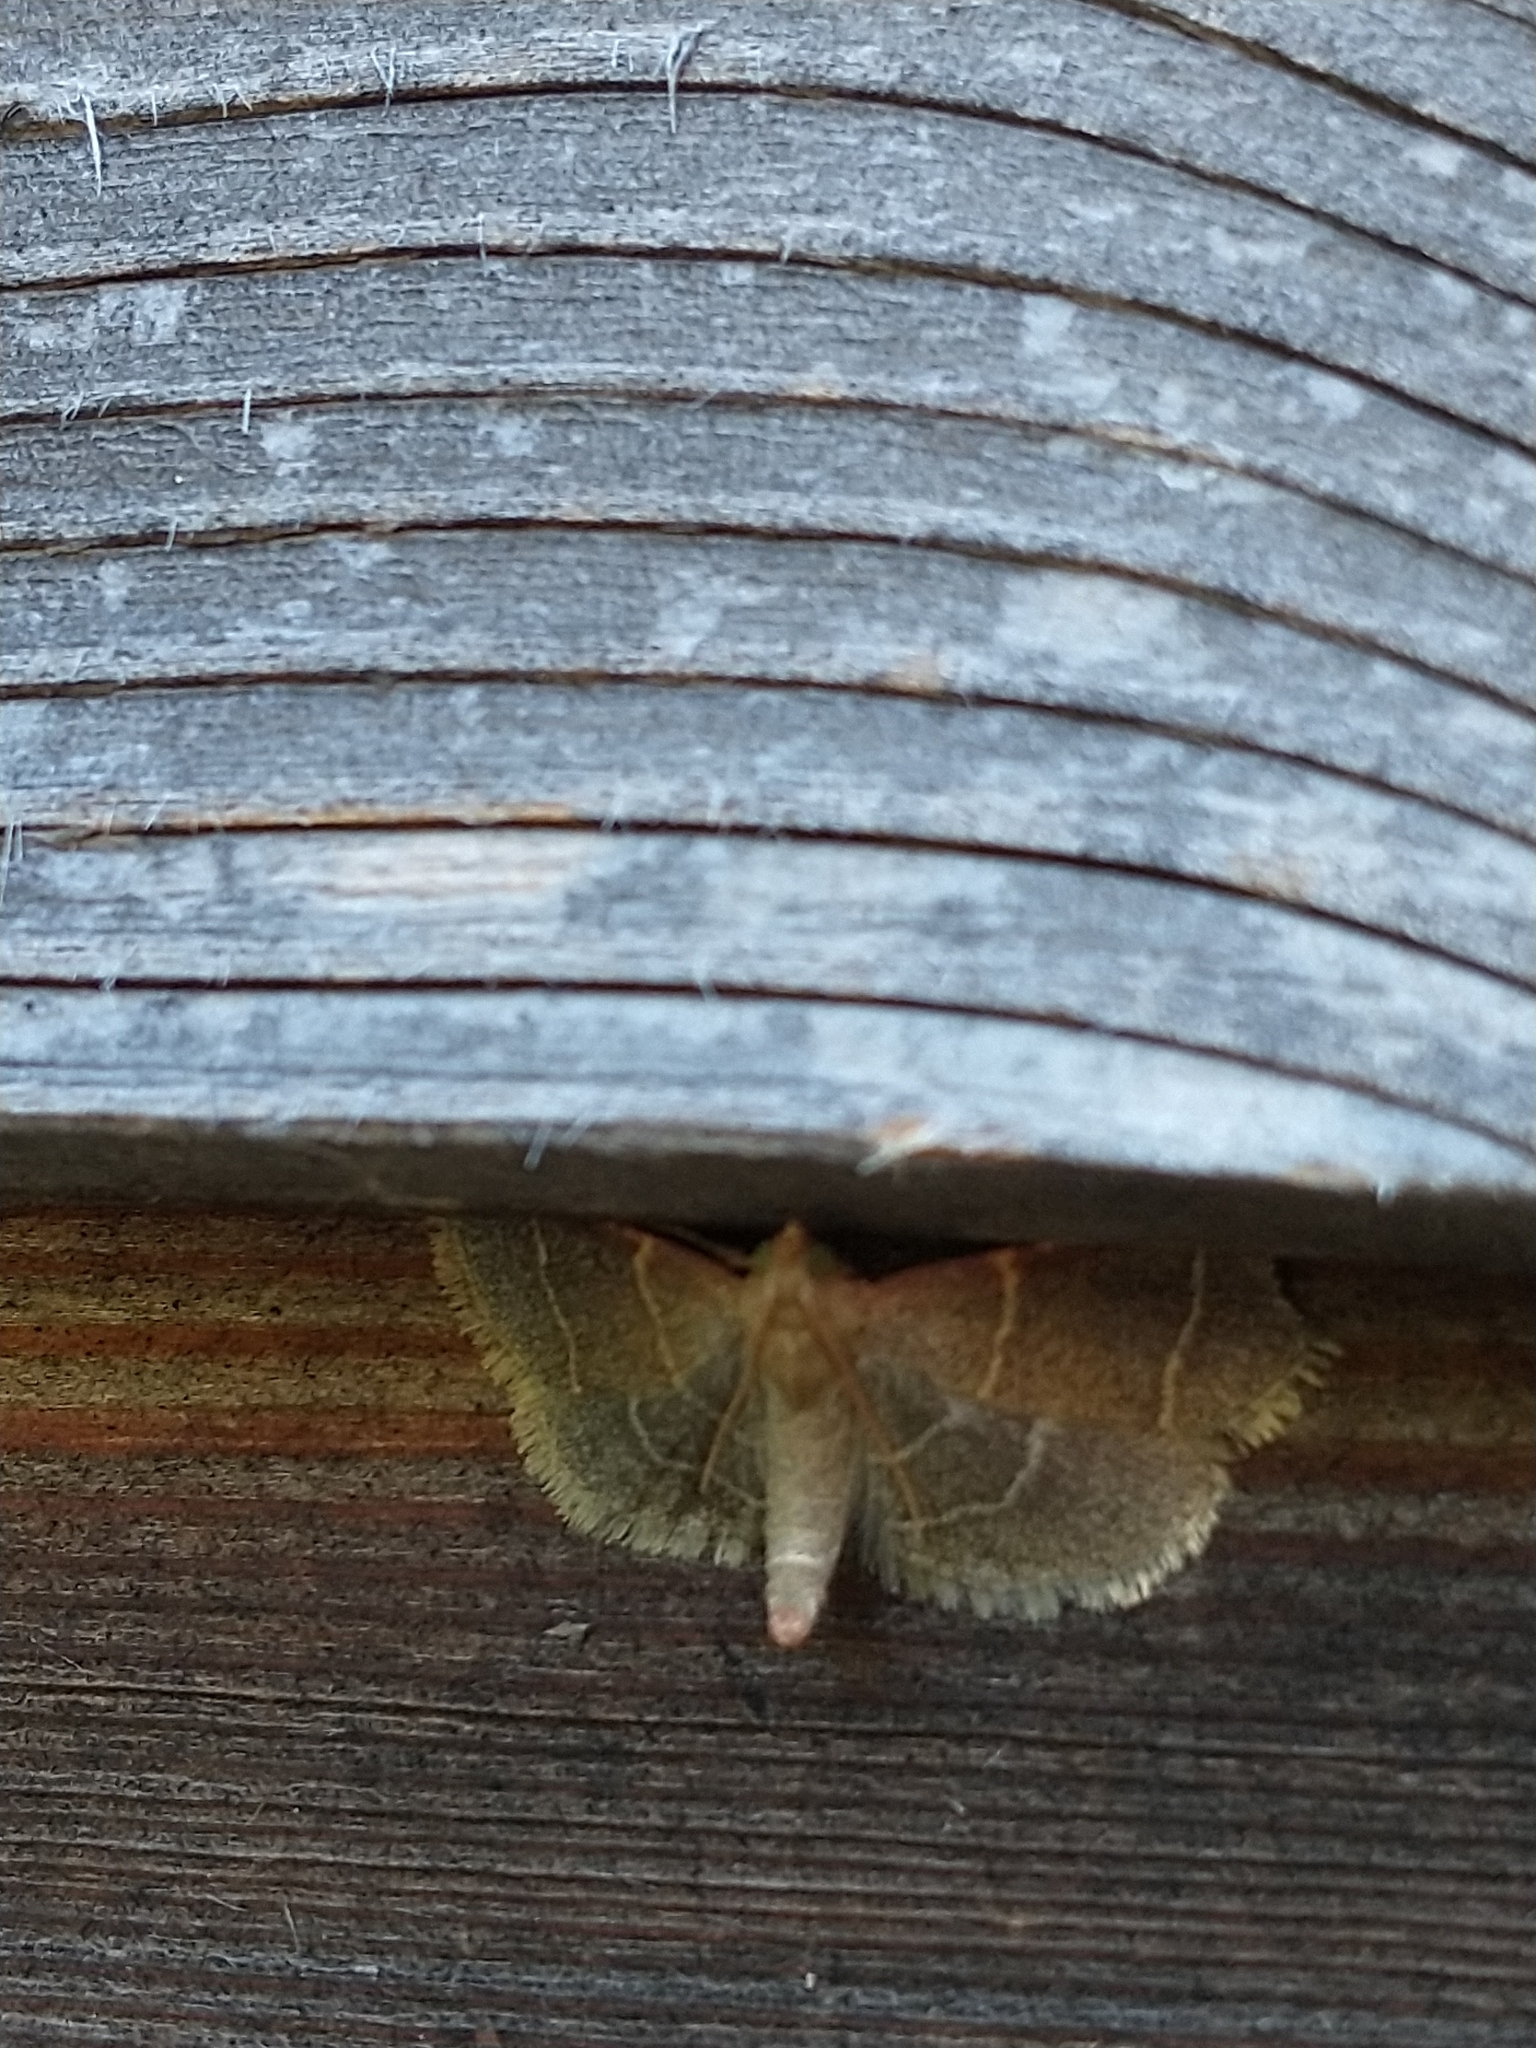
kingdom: Animalia
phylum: Arthropoda
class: Insecta
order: Lepidoptera
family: Pyralidae
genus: Hypsopygia
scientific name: Hypsopygia glaucinalis
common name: Double-striped tabby
